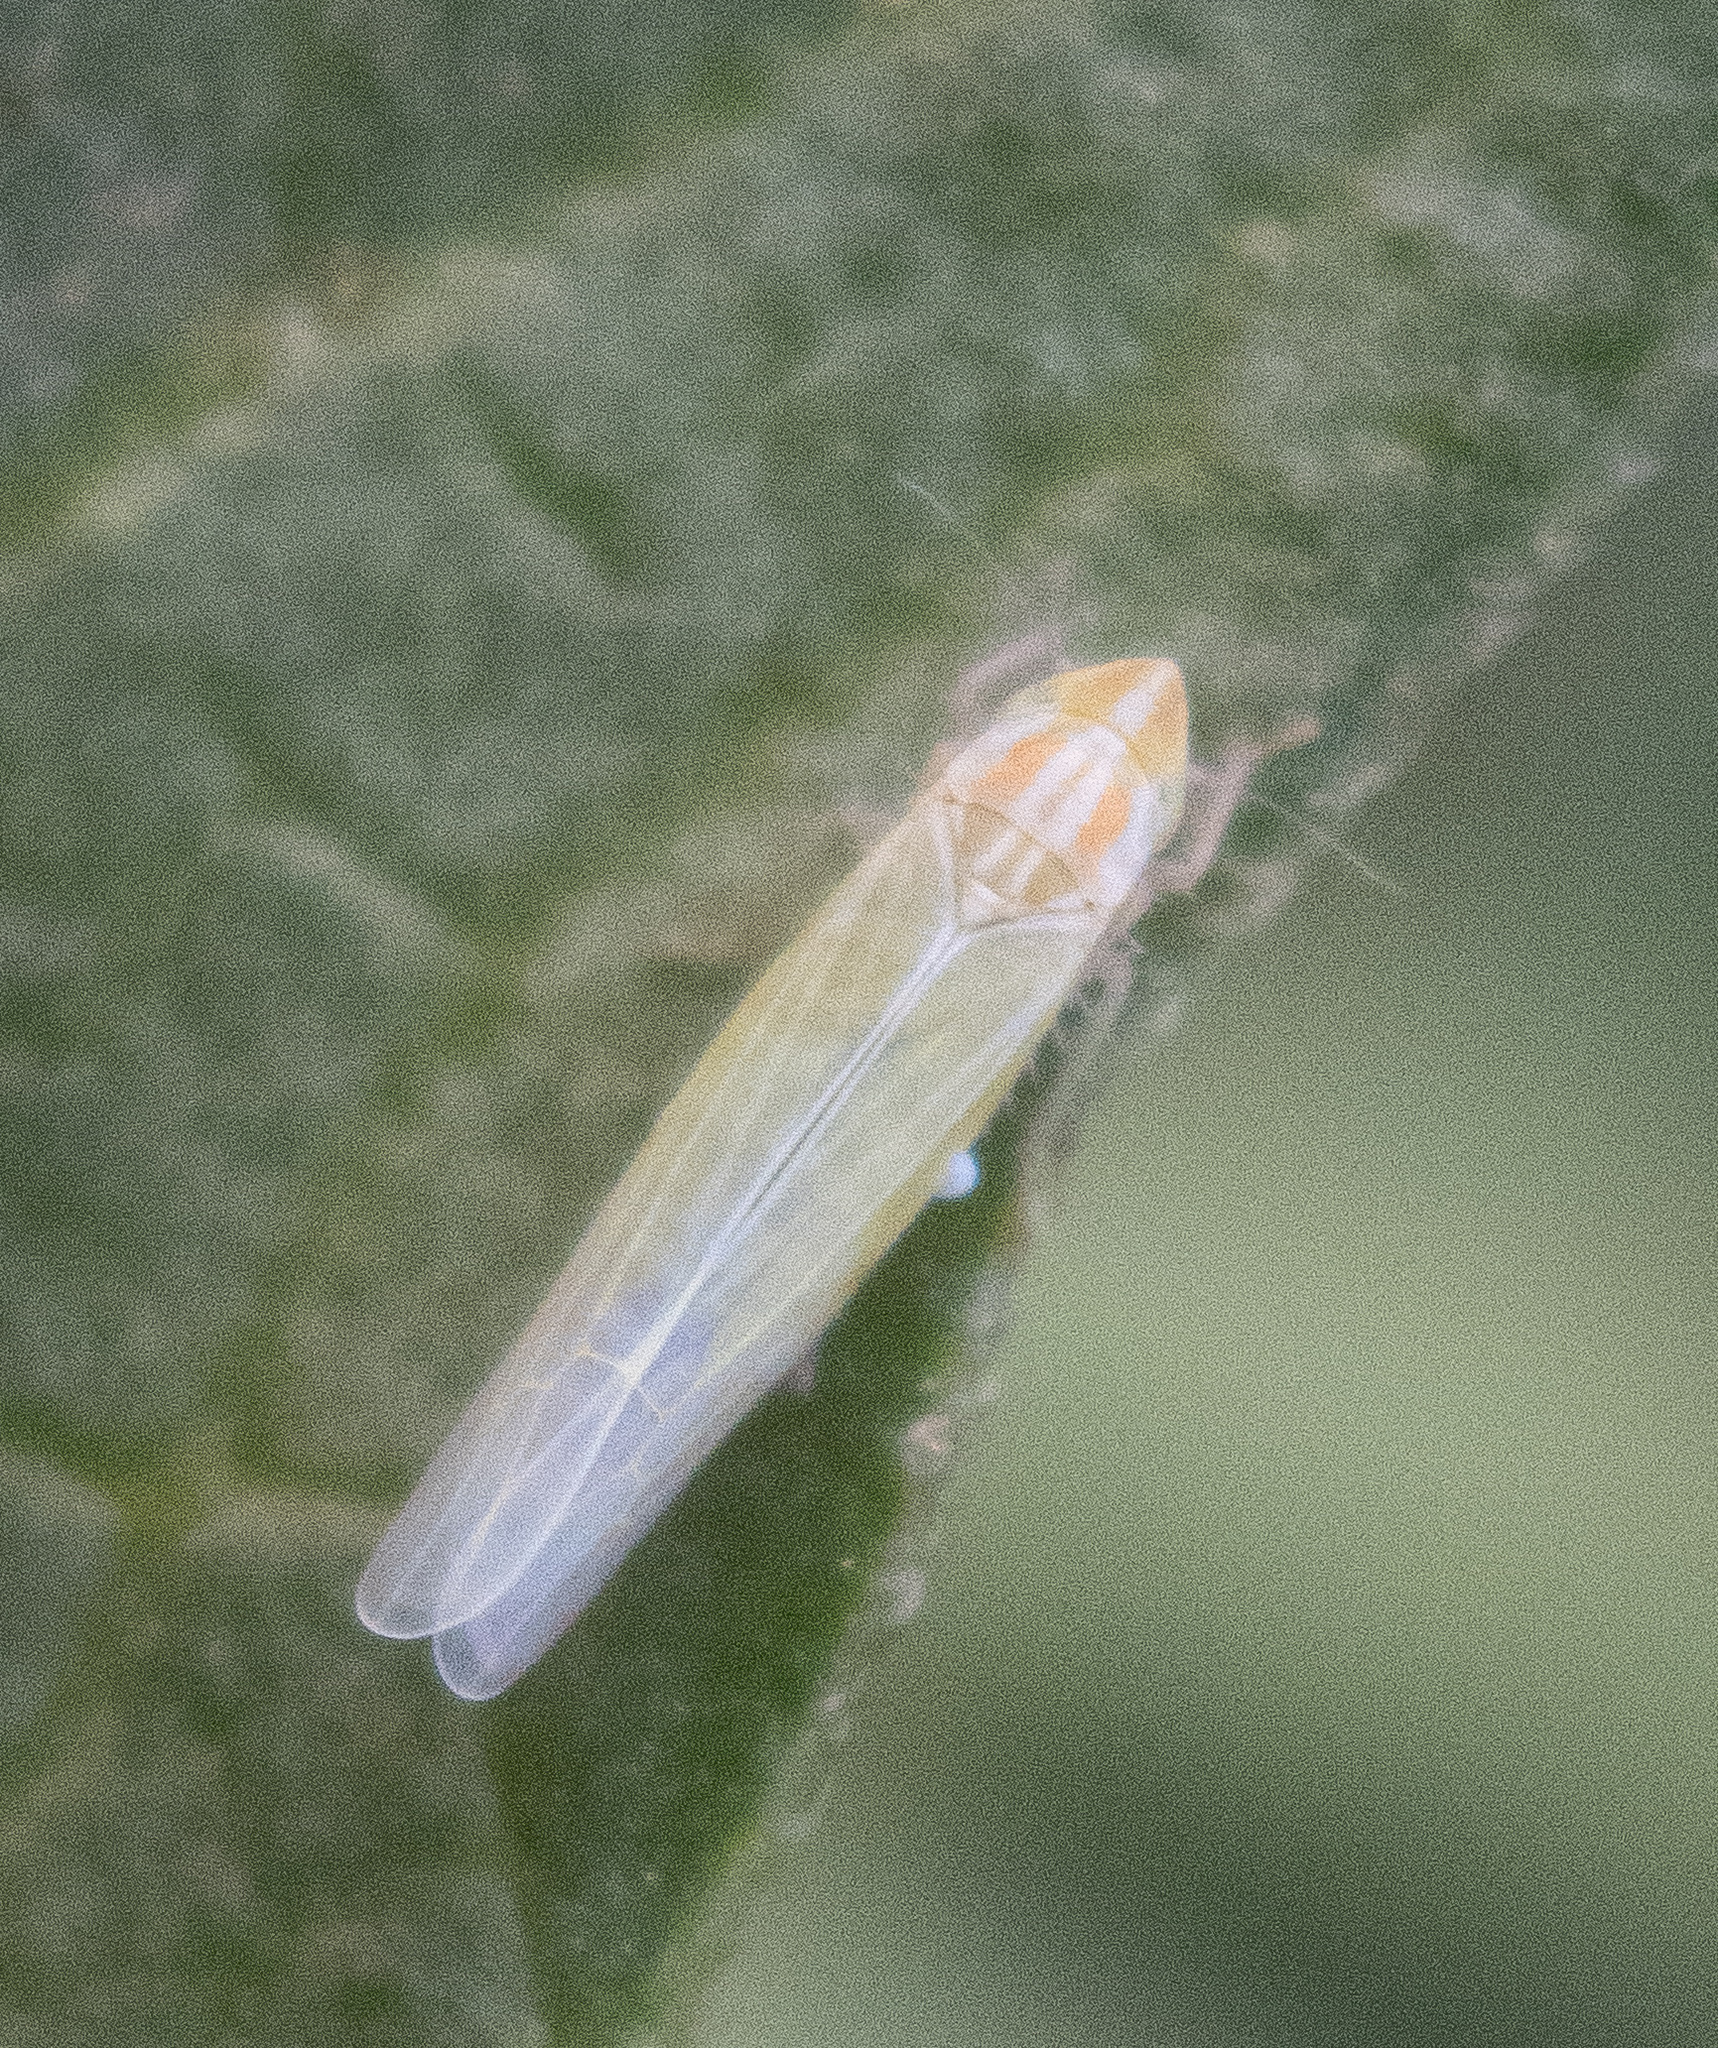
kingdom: Animalia
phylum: Arthropoda
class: Insecta
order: Hemiptera
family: Cicadellidae
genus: Dikraneura
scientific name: Dikraneura angustata
